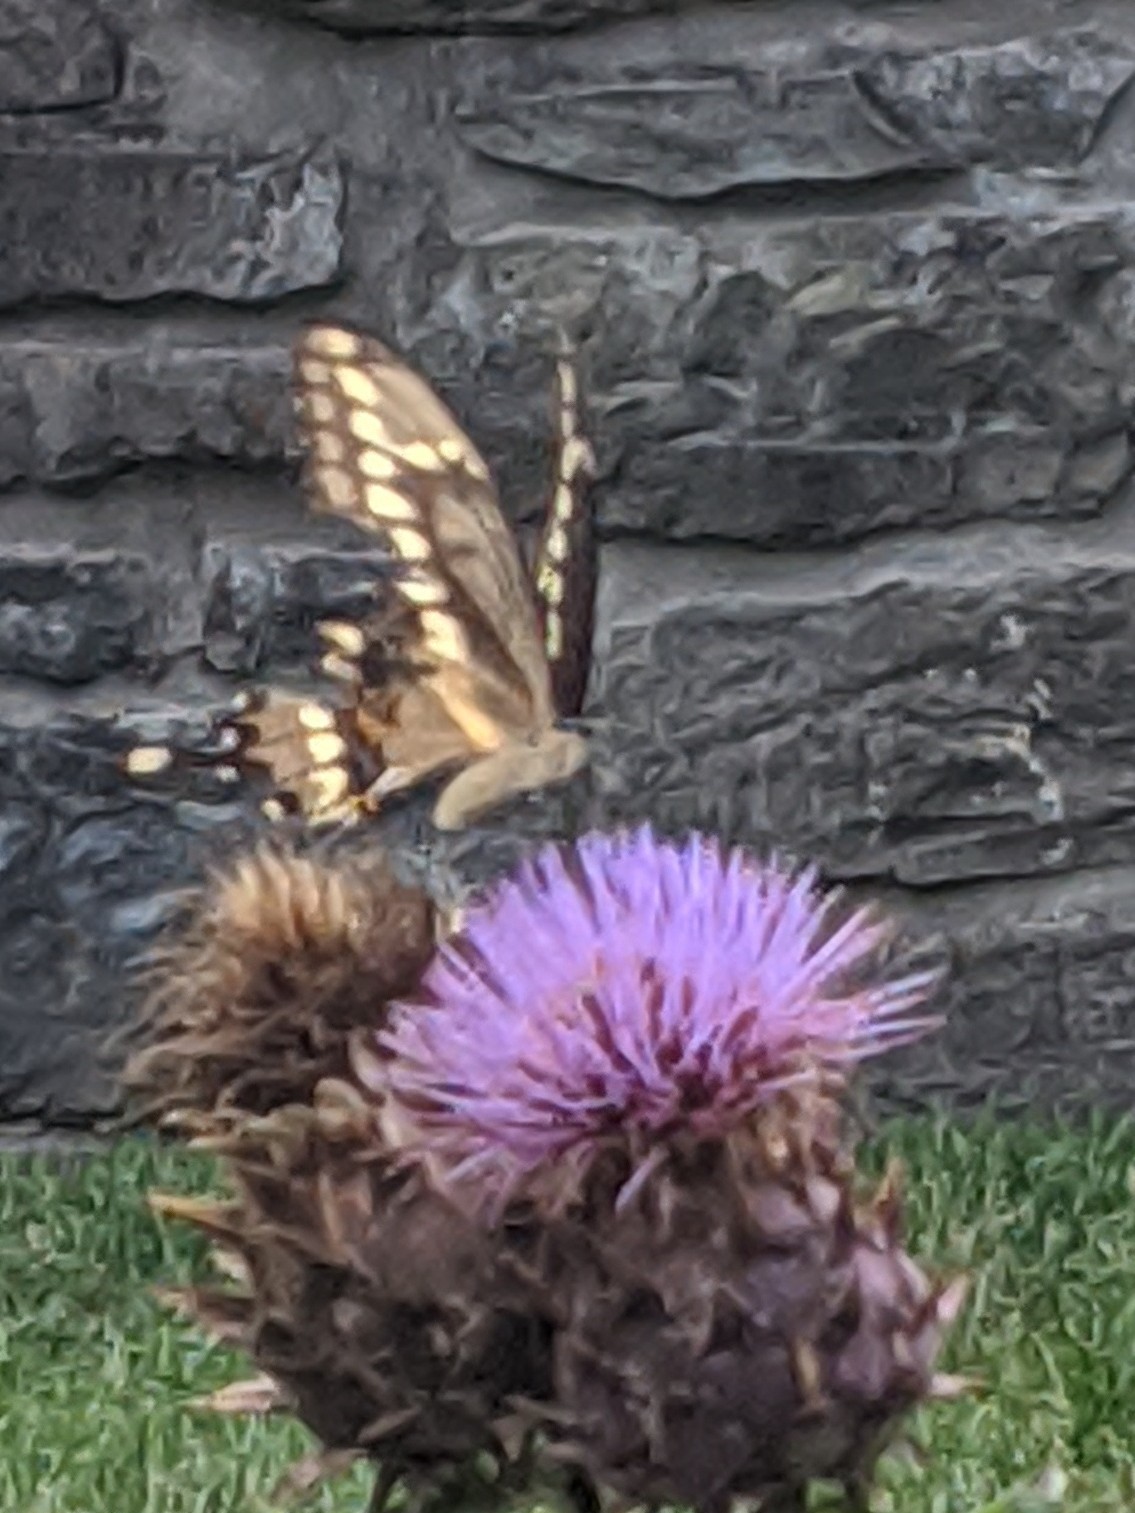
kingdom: Animalia
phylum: Arthropoda
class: Insecta
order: Lepidoptera
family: Papilionidae
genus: Papilio
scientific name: Papilio cresphontes
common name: Giant swallowtail
